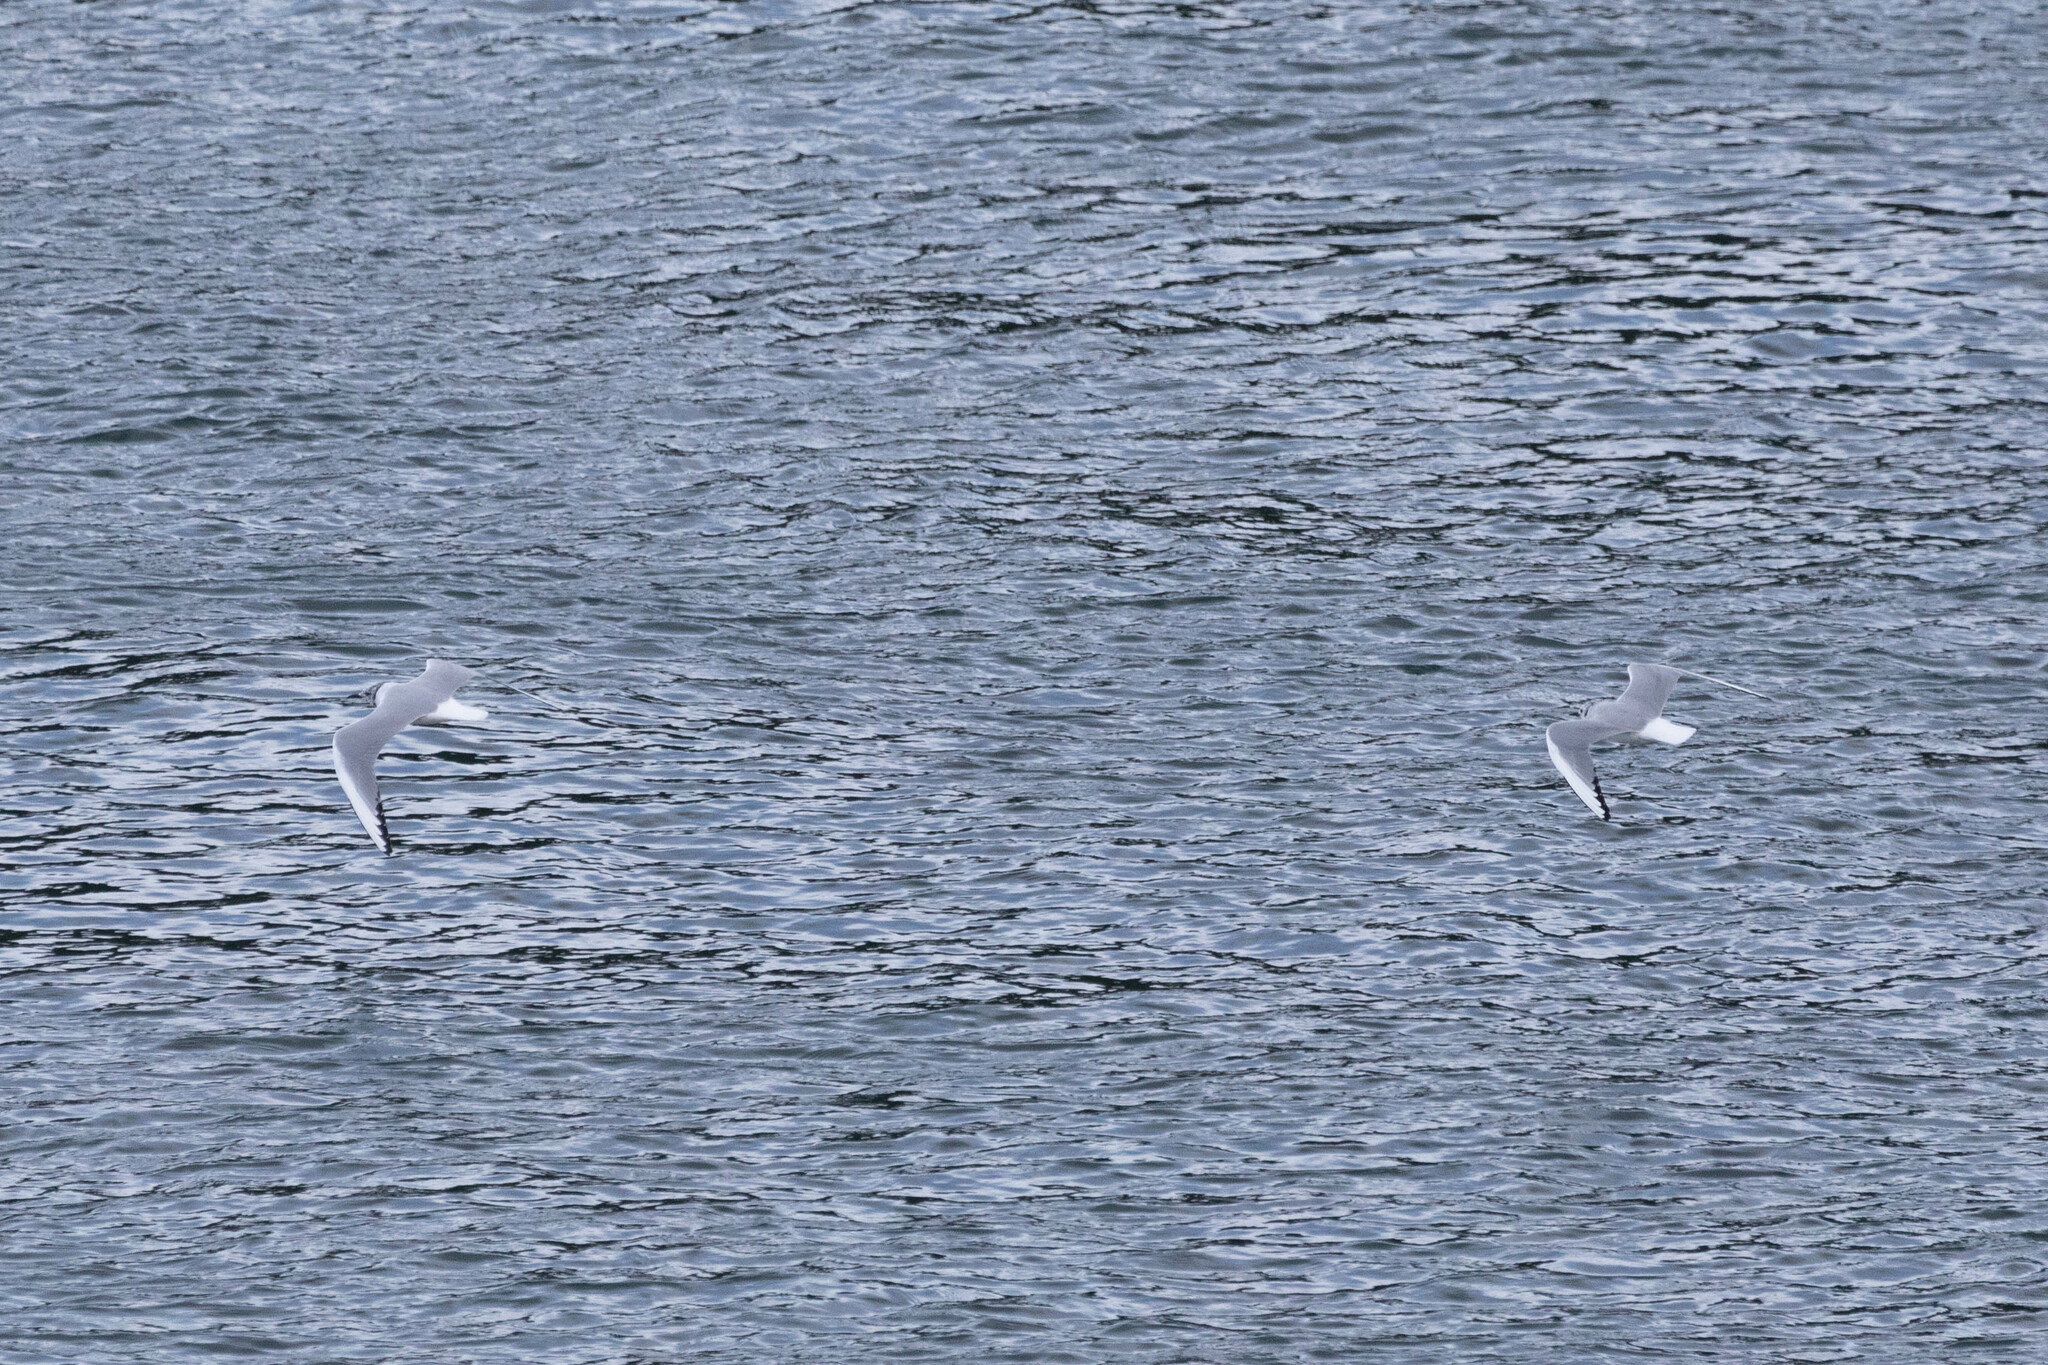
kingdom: Animalia
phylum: Chordata
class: Aves
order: Charadriiformes
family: Laridae
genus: Chroicocephalus
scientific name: Chroicocephalus philadelphia
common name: Bonaparte's gull
